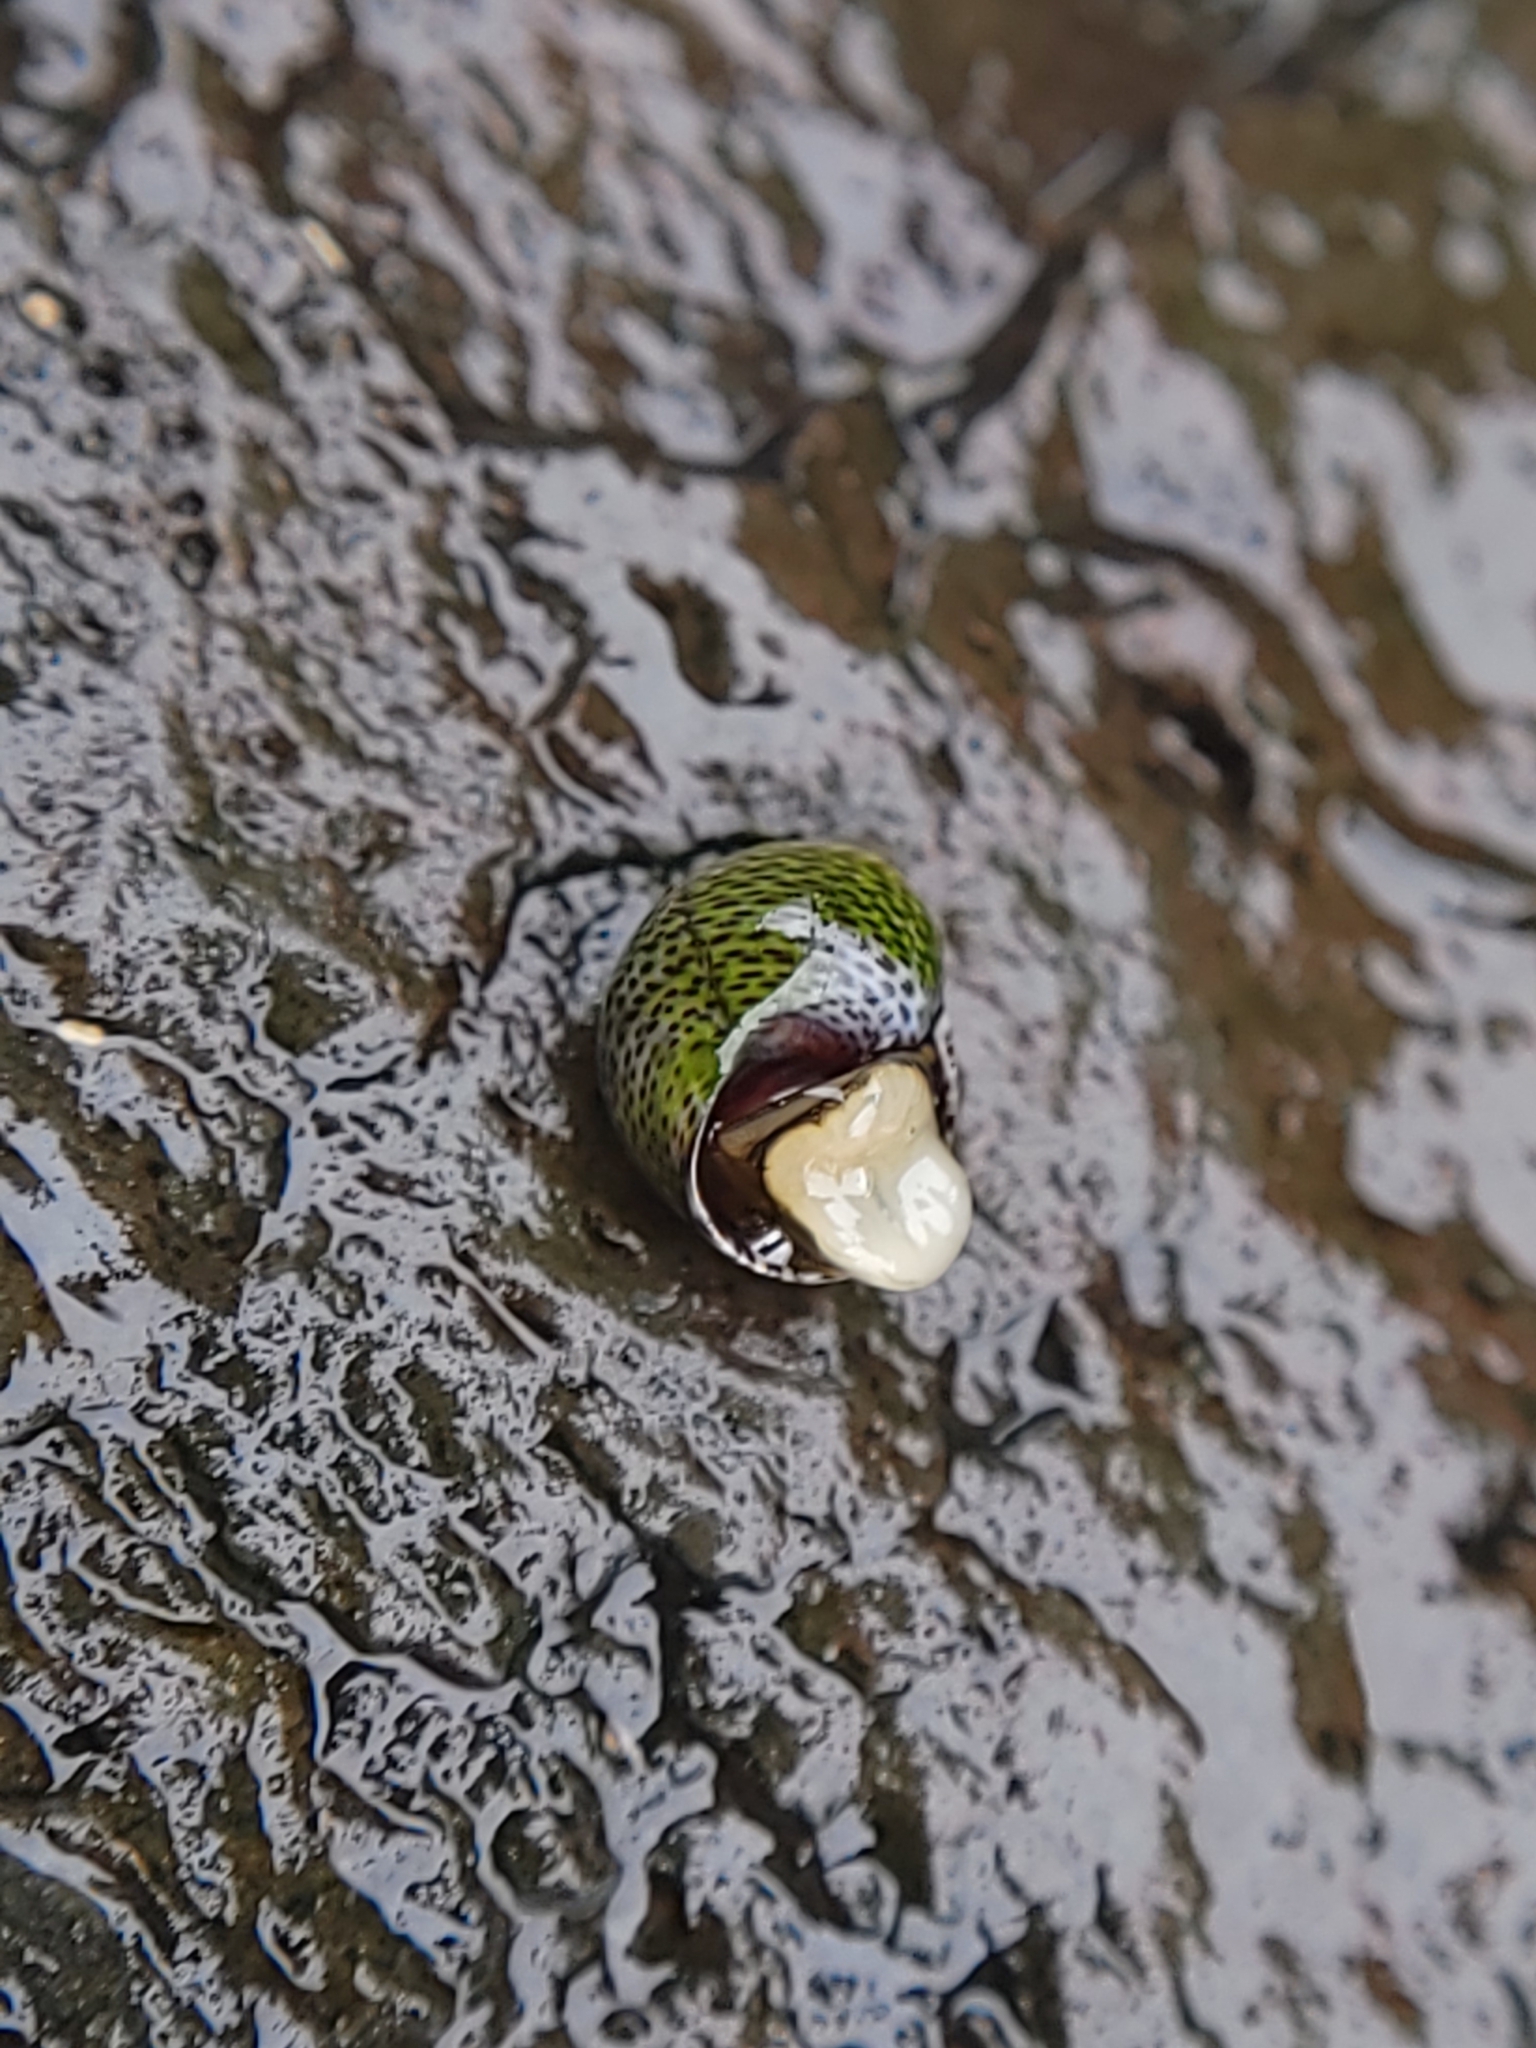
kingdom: Animalia
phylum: Mollusca
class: Gastropoda
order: Littorinimorpha
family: Littorinidae
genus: Littoraria
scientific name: Littoraria pintado
